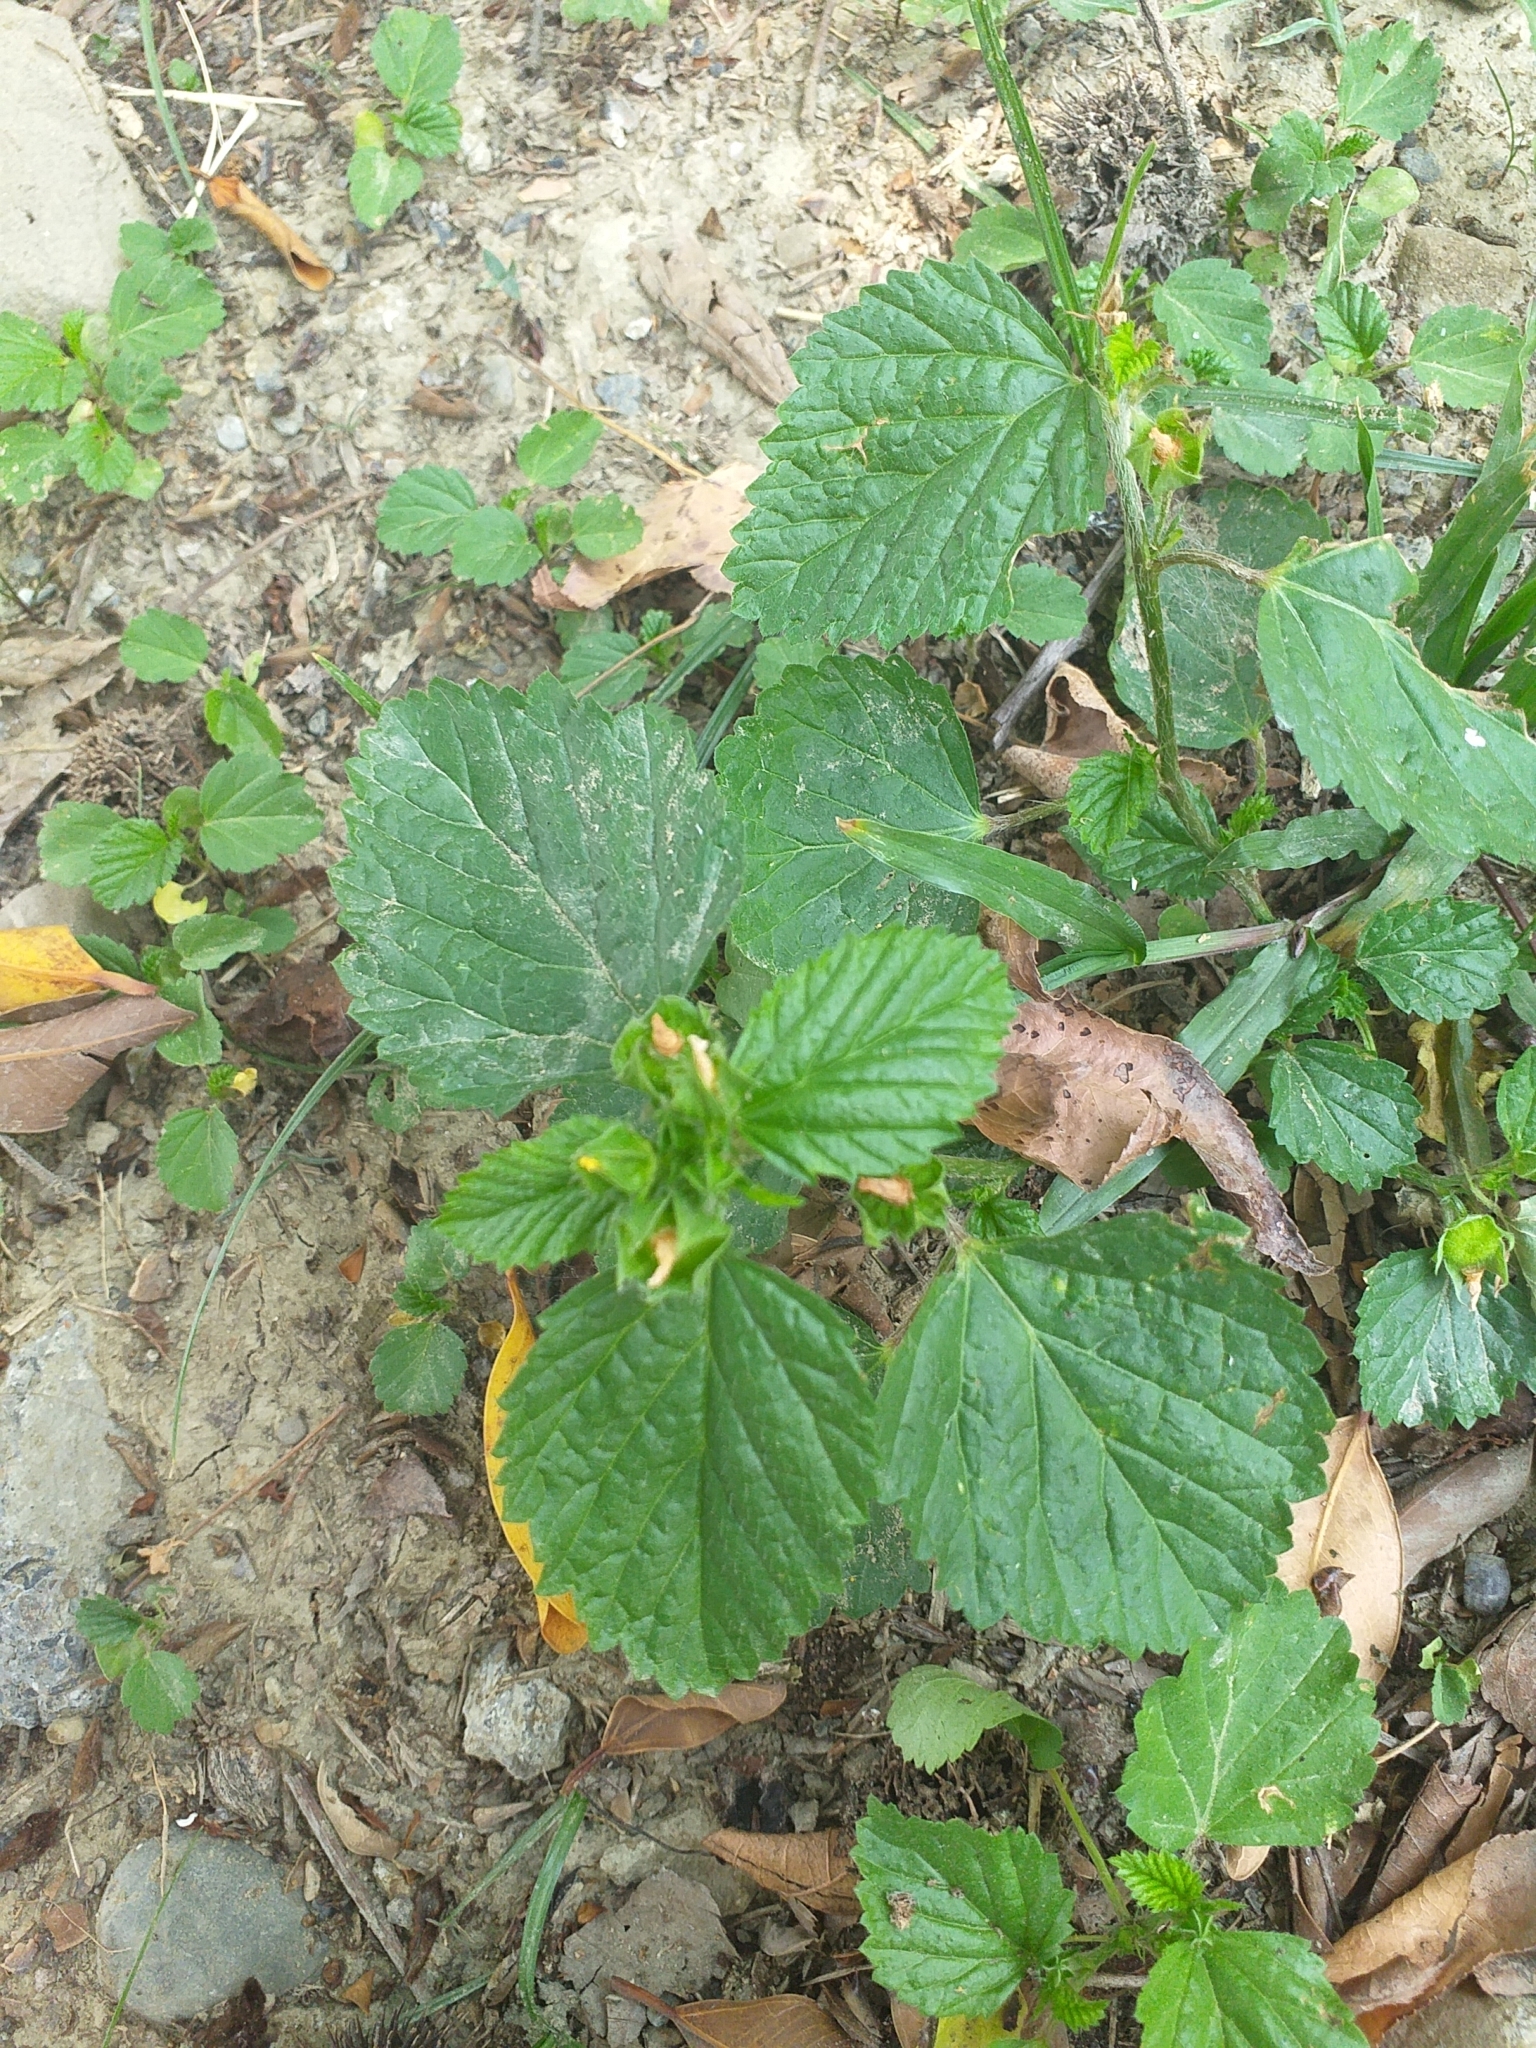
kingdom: Plantae
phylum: Tracheophyta
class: Magnoliopsida
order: Malvales
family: Malvaceae
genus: Malvastrum
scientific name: Malvastrum coromandelianum
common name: Threelobe false mallow
